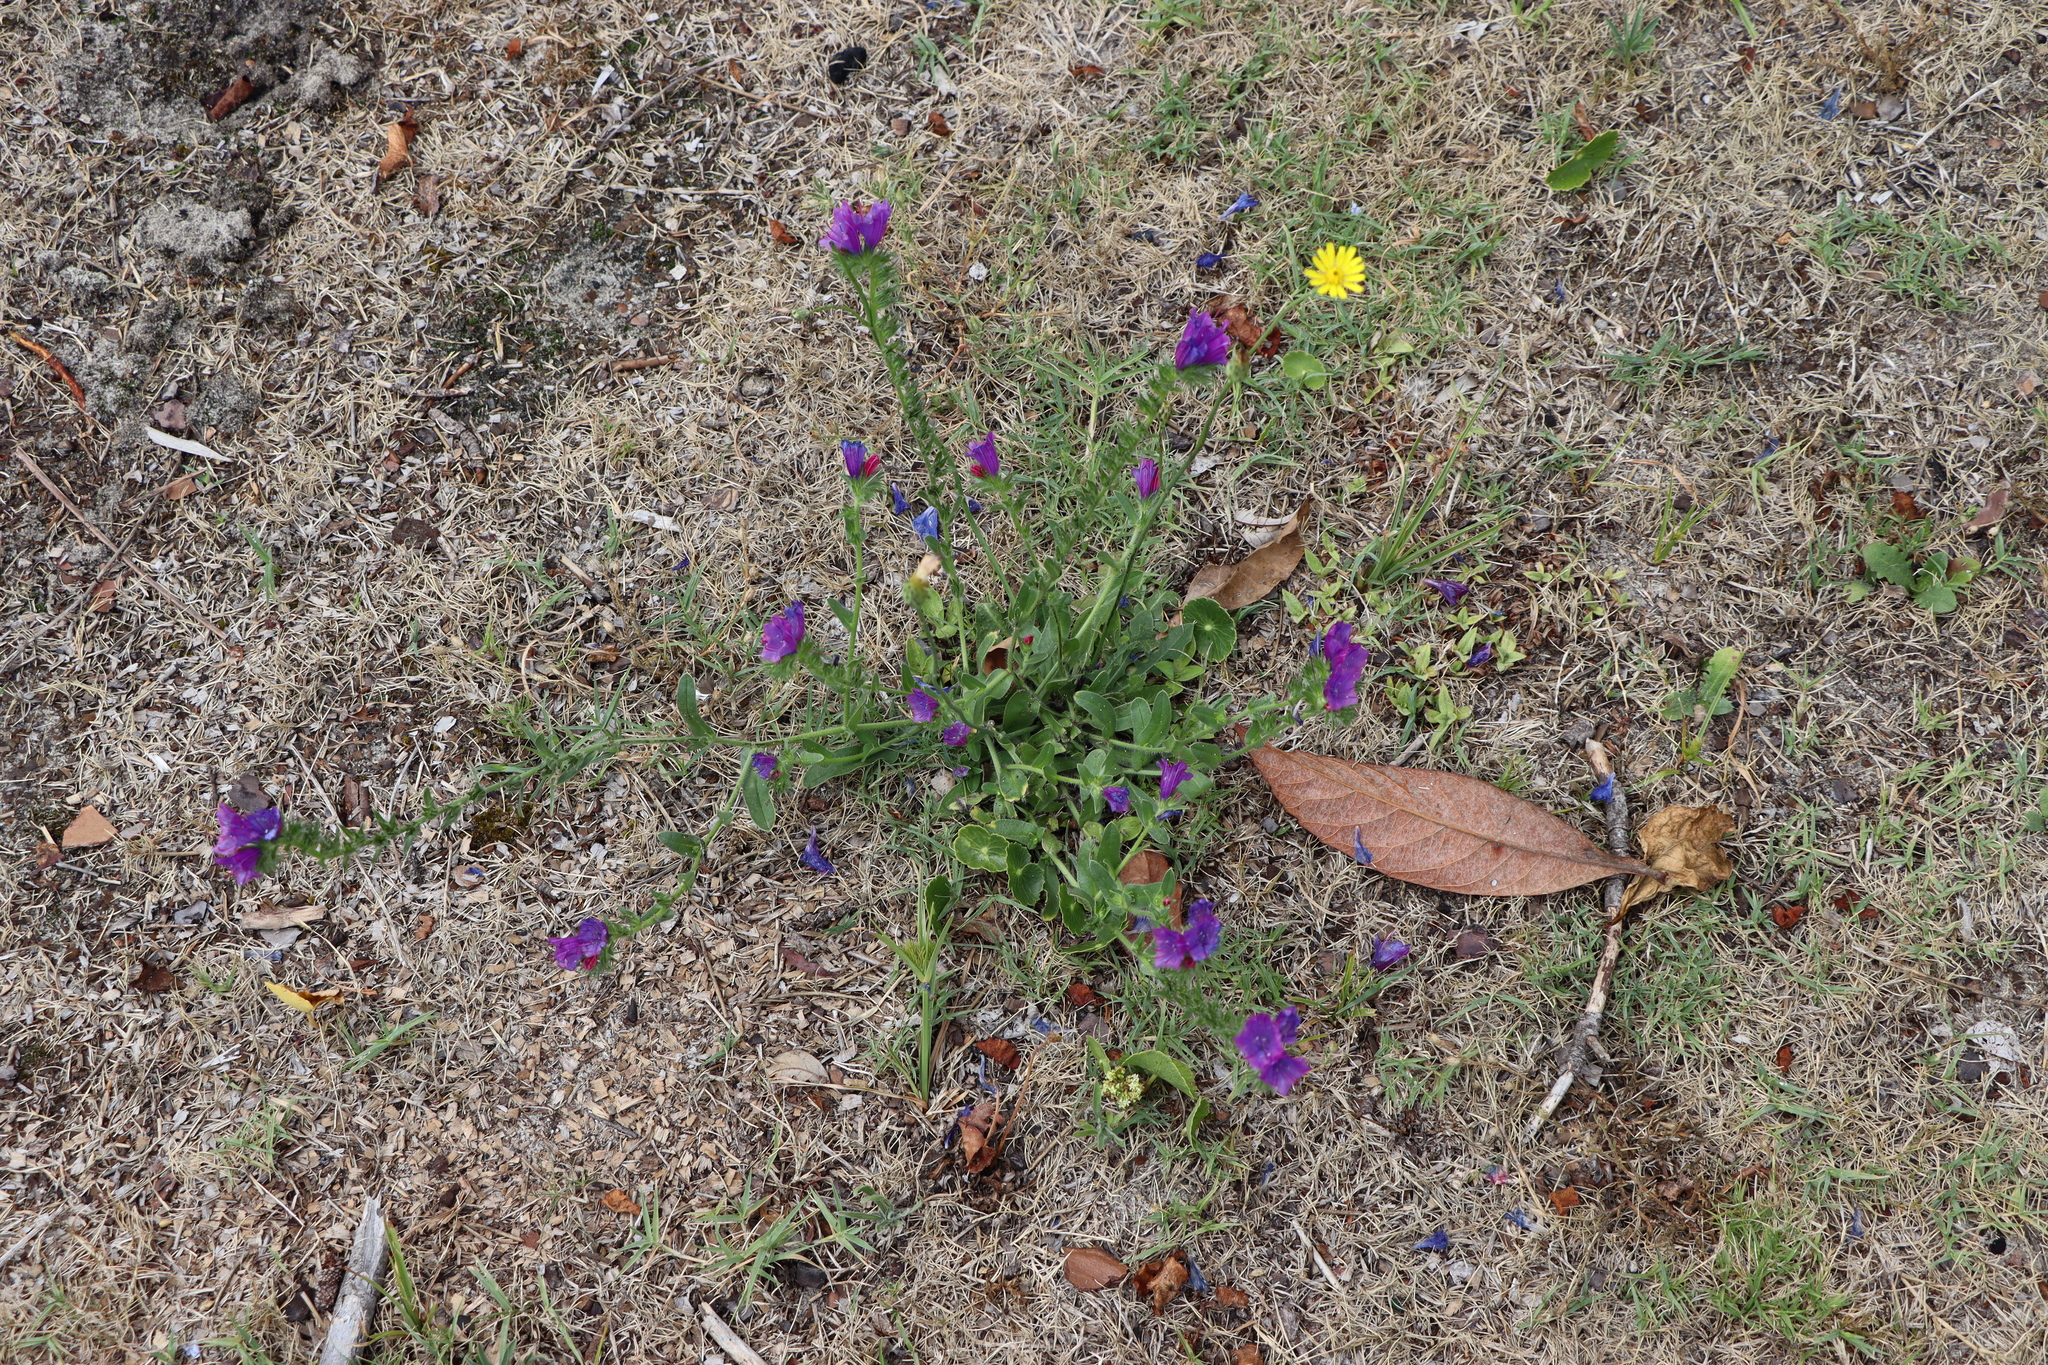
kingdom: Plantae
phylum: Tracheophyta
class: Magnoliopsida
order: Boraginales
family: Boraginaceae
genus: Echium
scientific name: Echium plantagineum
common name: Purple viper's-bugloss
